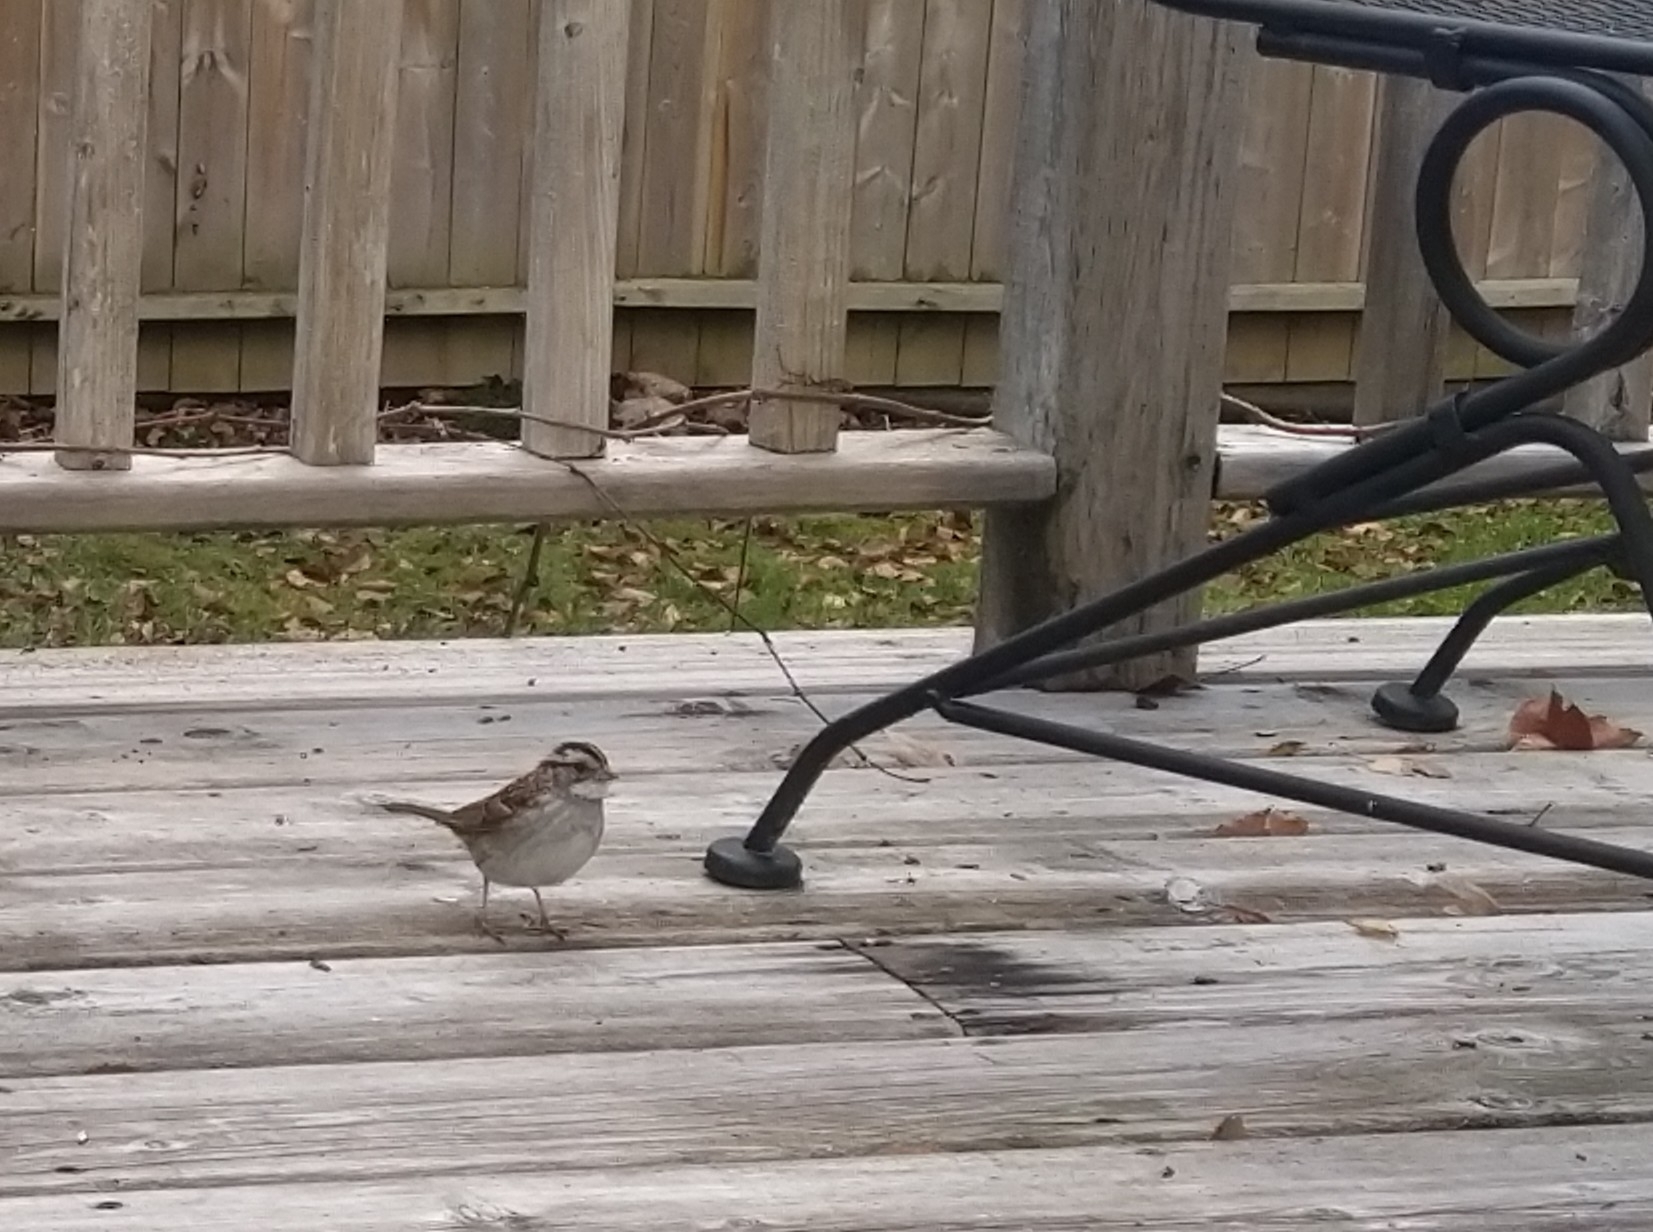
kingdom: Animalia
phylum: Chordata
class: Aves
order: Passeriformes
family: Passerellidae
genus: Zonotrichia
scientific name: Zonotrichia albicollis
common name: White-throated sparrow
